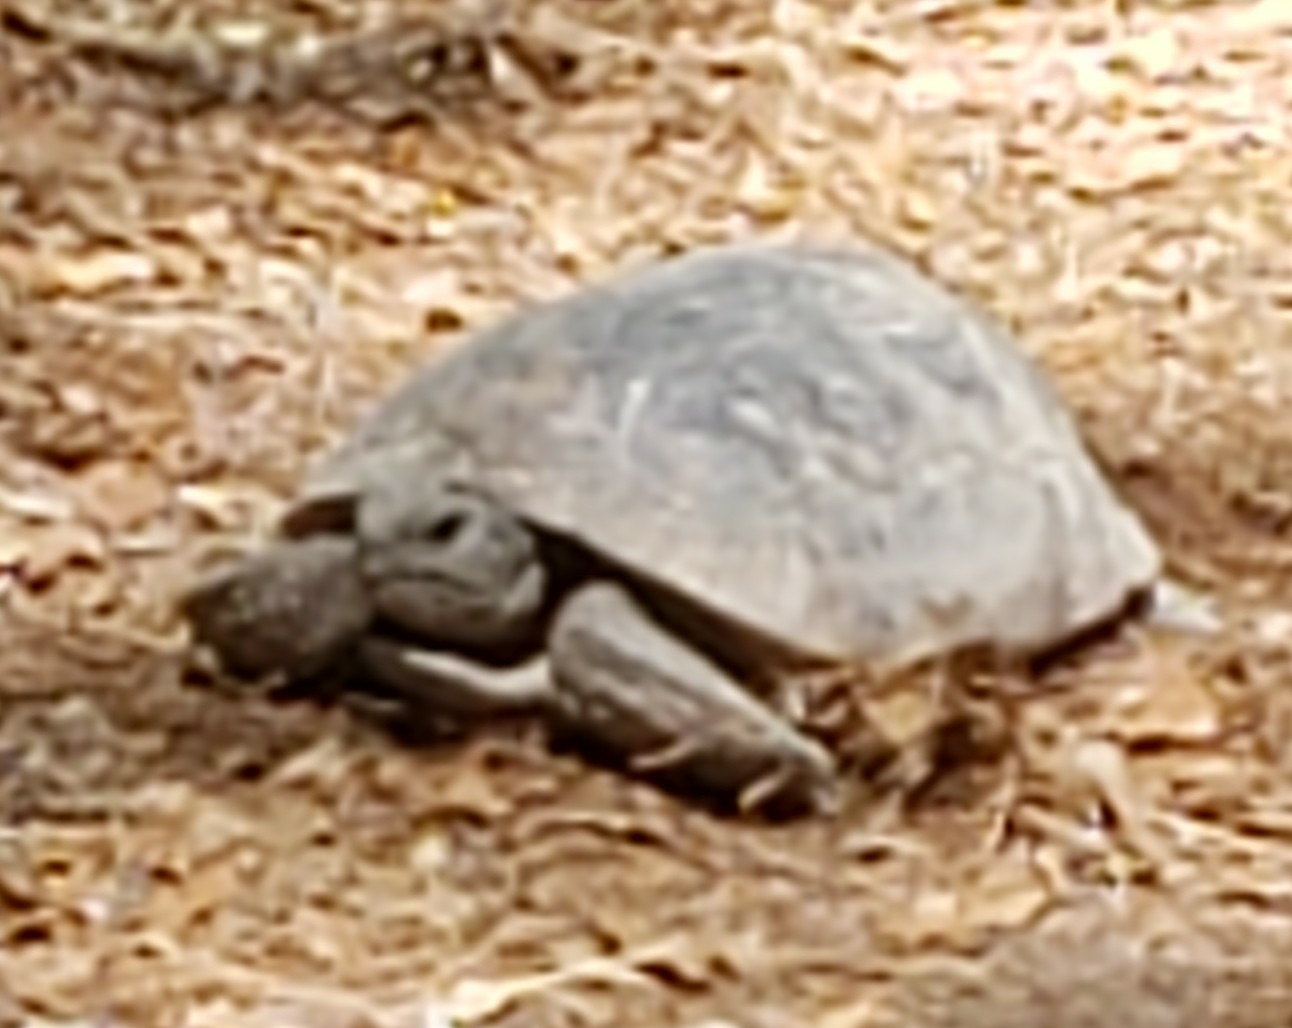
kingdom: Animalia
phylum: Chordata
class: Testudines
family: Testudinidae
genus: Gopherus
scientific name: Gopherus polyphemus
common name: Florida gopher tortoise
